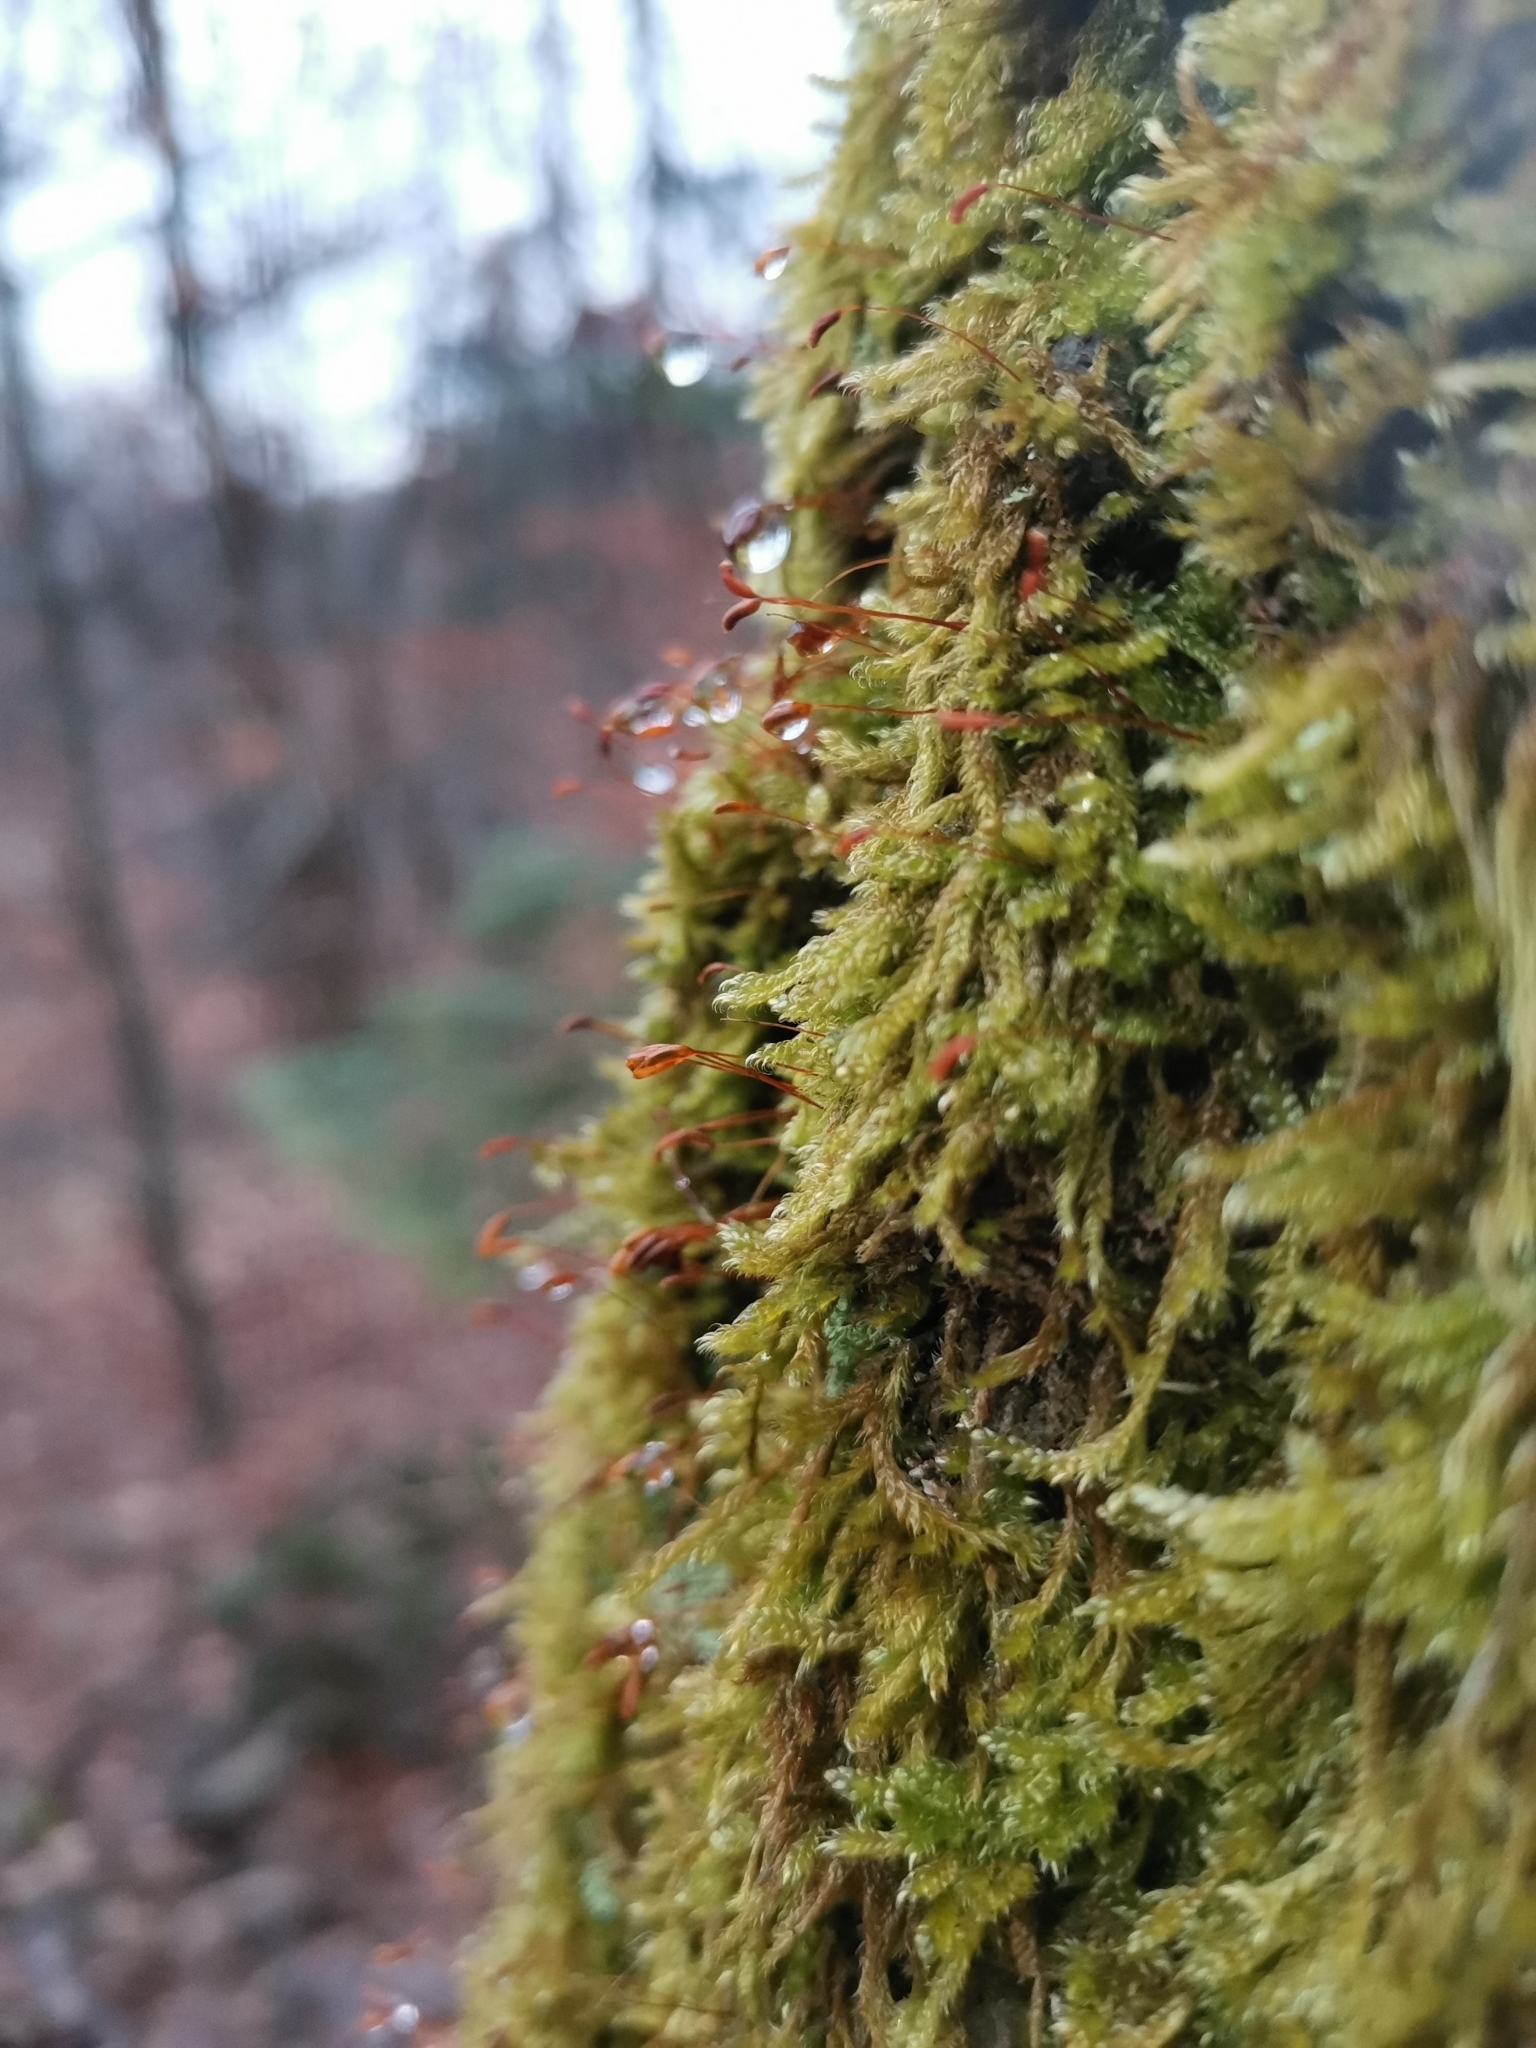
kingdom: Plantae
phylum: Bryophyta
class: Bryopsida
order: Hypnales
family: Hypnaceae
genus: Hypnum
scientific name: Hypnum cupressiforme
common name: Cypress-leaved plait-moss
